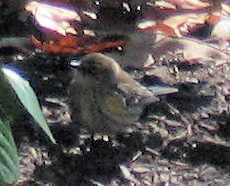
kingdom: Animalia
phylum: Chordata
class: Aves
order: Passeriformes
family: Parulidae
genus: Setophaga
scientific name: Setophaga coronata
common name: Myrtle warbler
